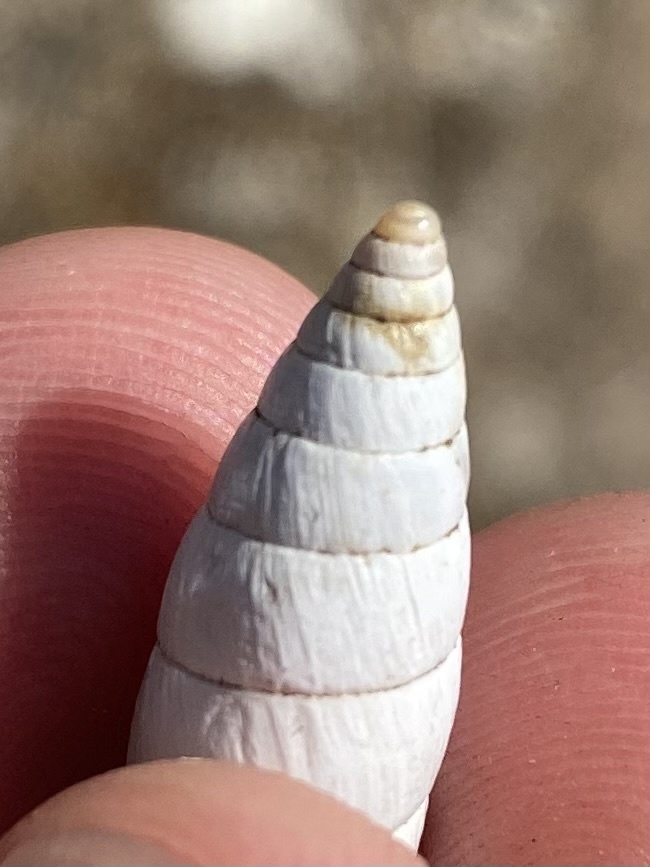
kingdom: Animalia
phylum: Mollusca
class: Gastropoda
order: Stylommatophora
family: Enidae
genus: Brephulopsis
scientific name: Brephulopsis cylindrica
